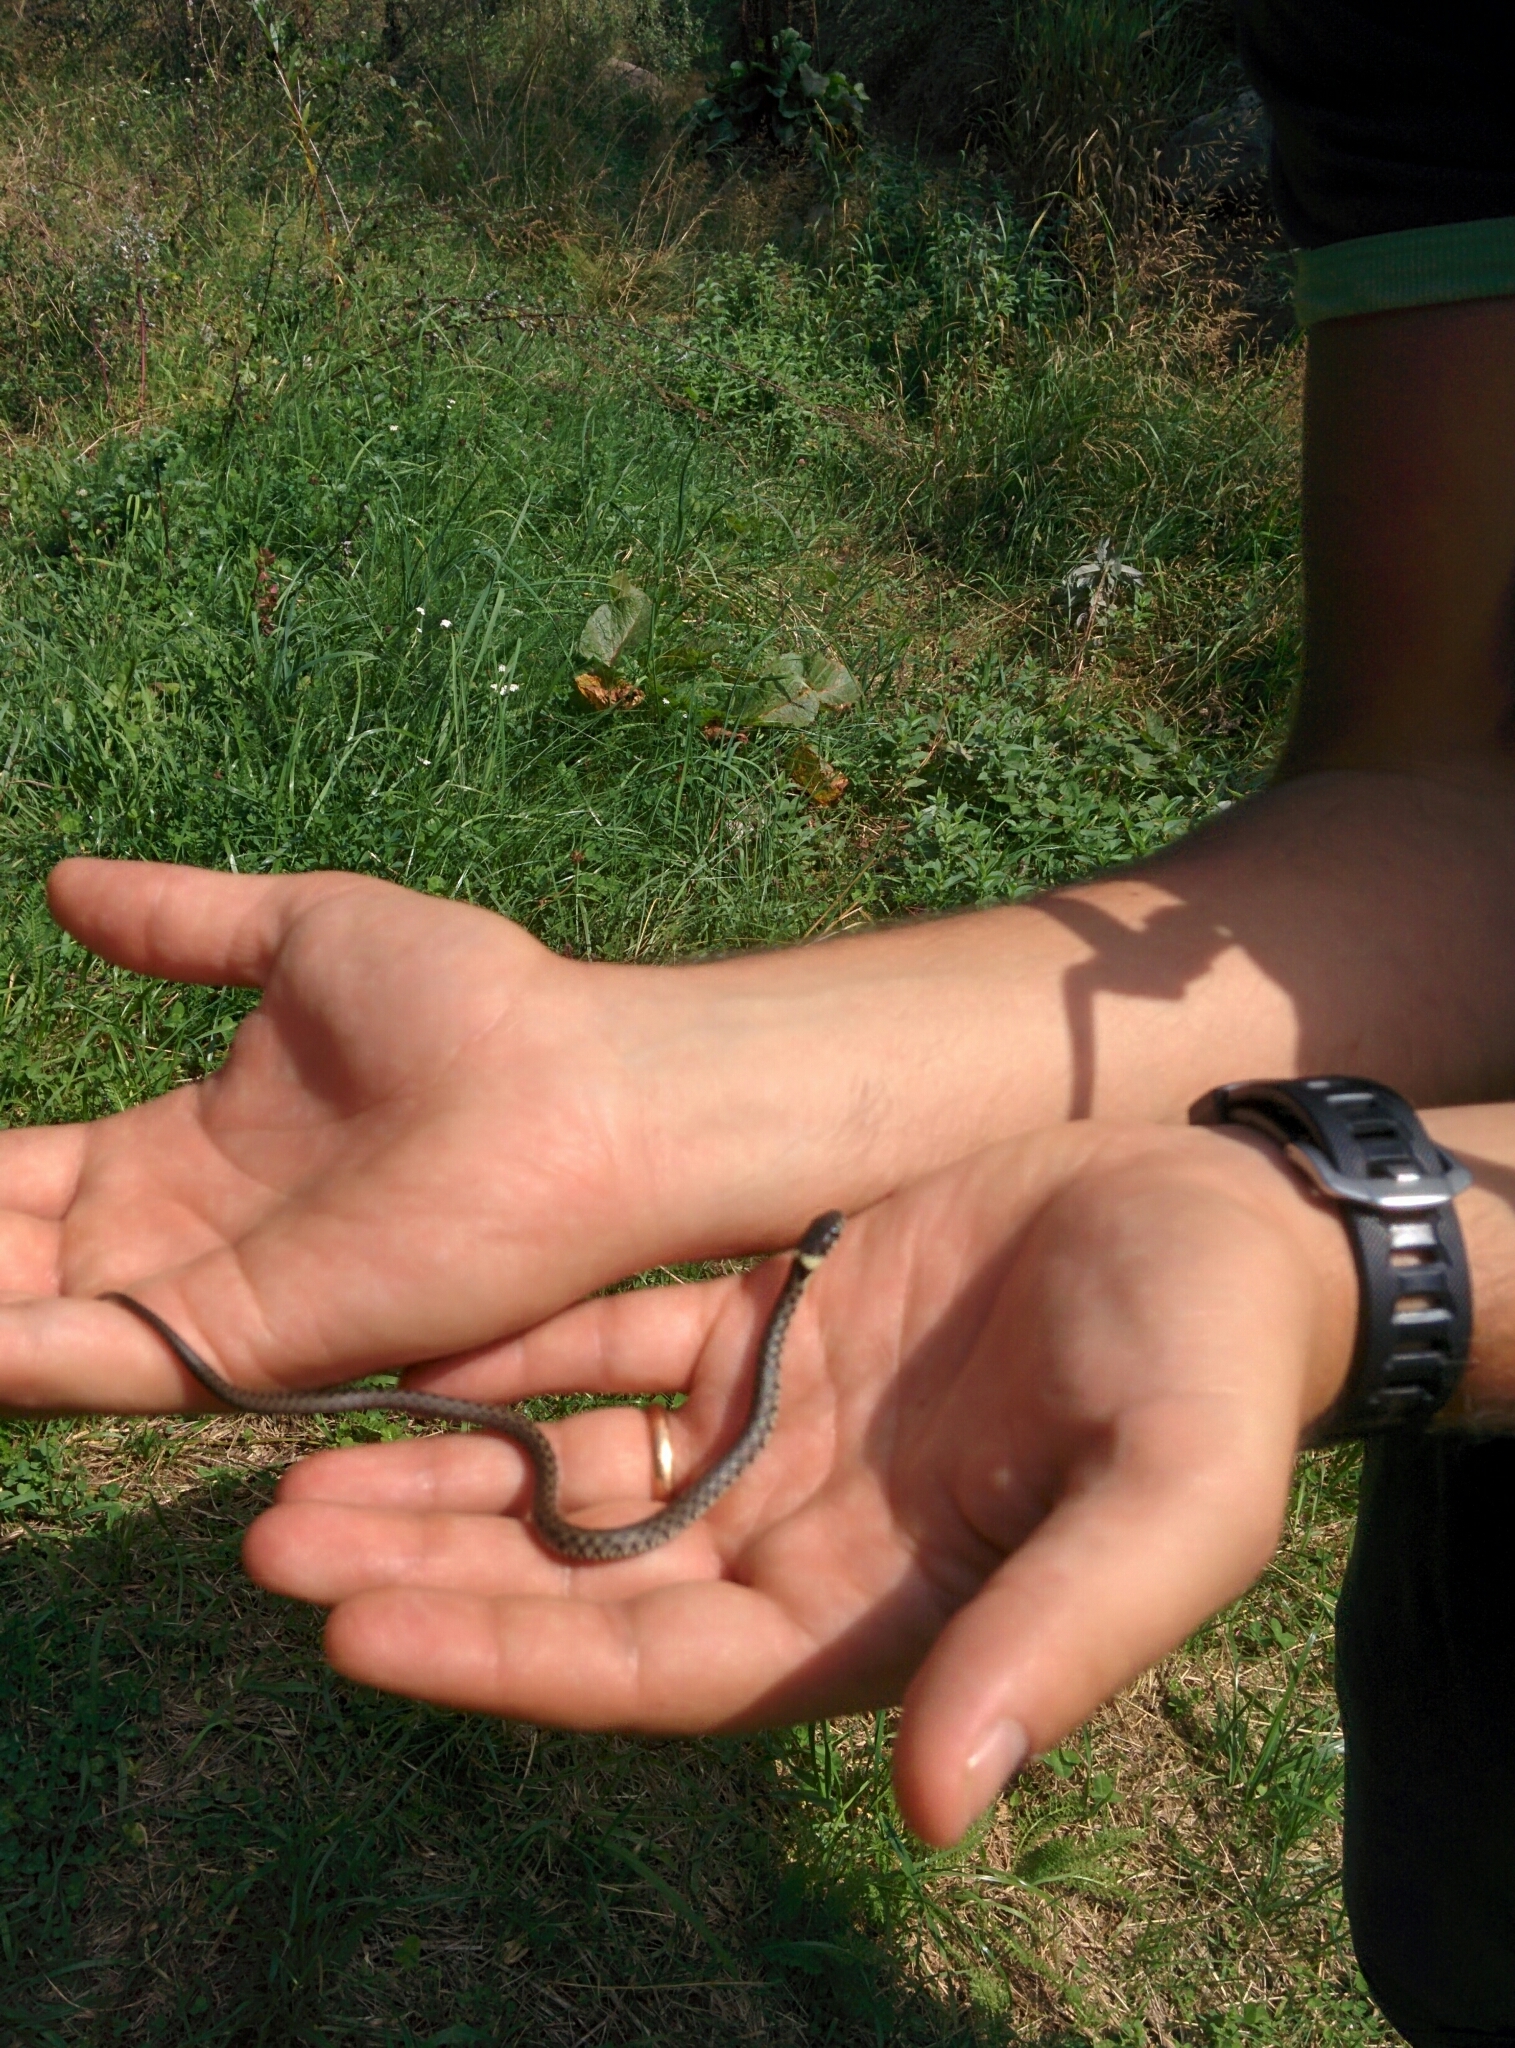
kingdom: Animalia
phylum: Chordata
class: Squamata
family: Colubridae
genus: Natrix
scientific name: Natrix helvetica
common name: Banded grass snake
